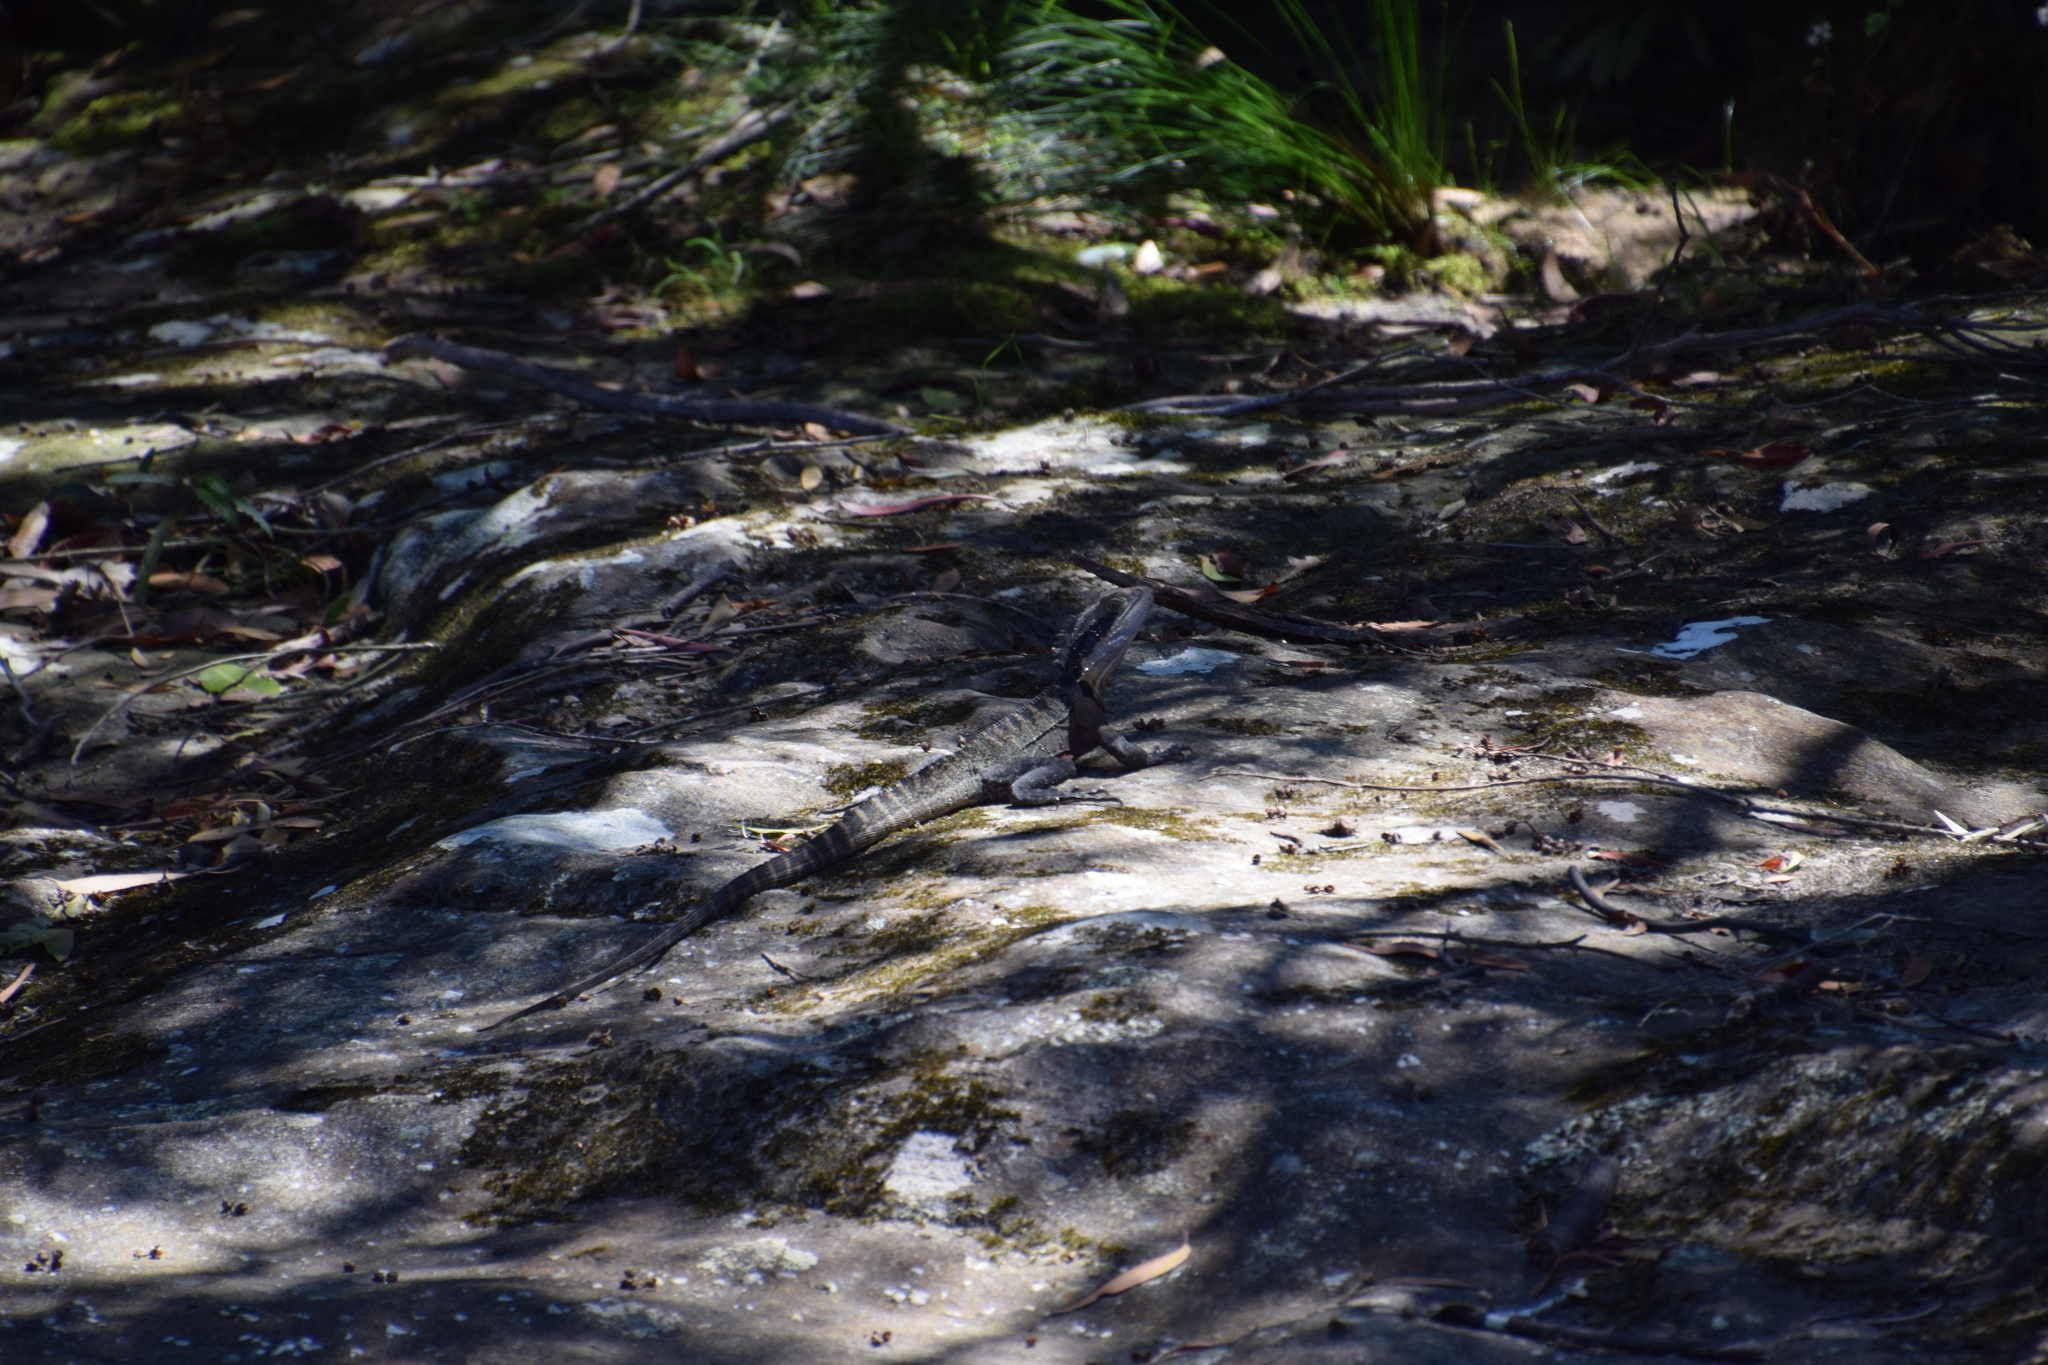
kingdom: Animalia
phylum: Chordata
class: Squamata
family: Agamidae
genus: Intellagama
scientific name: Intellagama lesueurii
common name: Eastern water dragon
